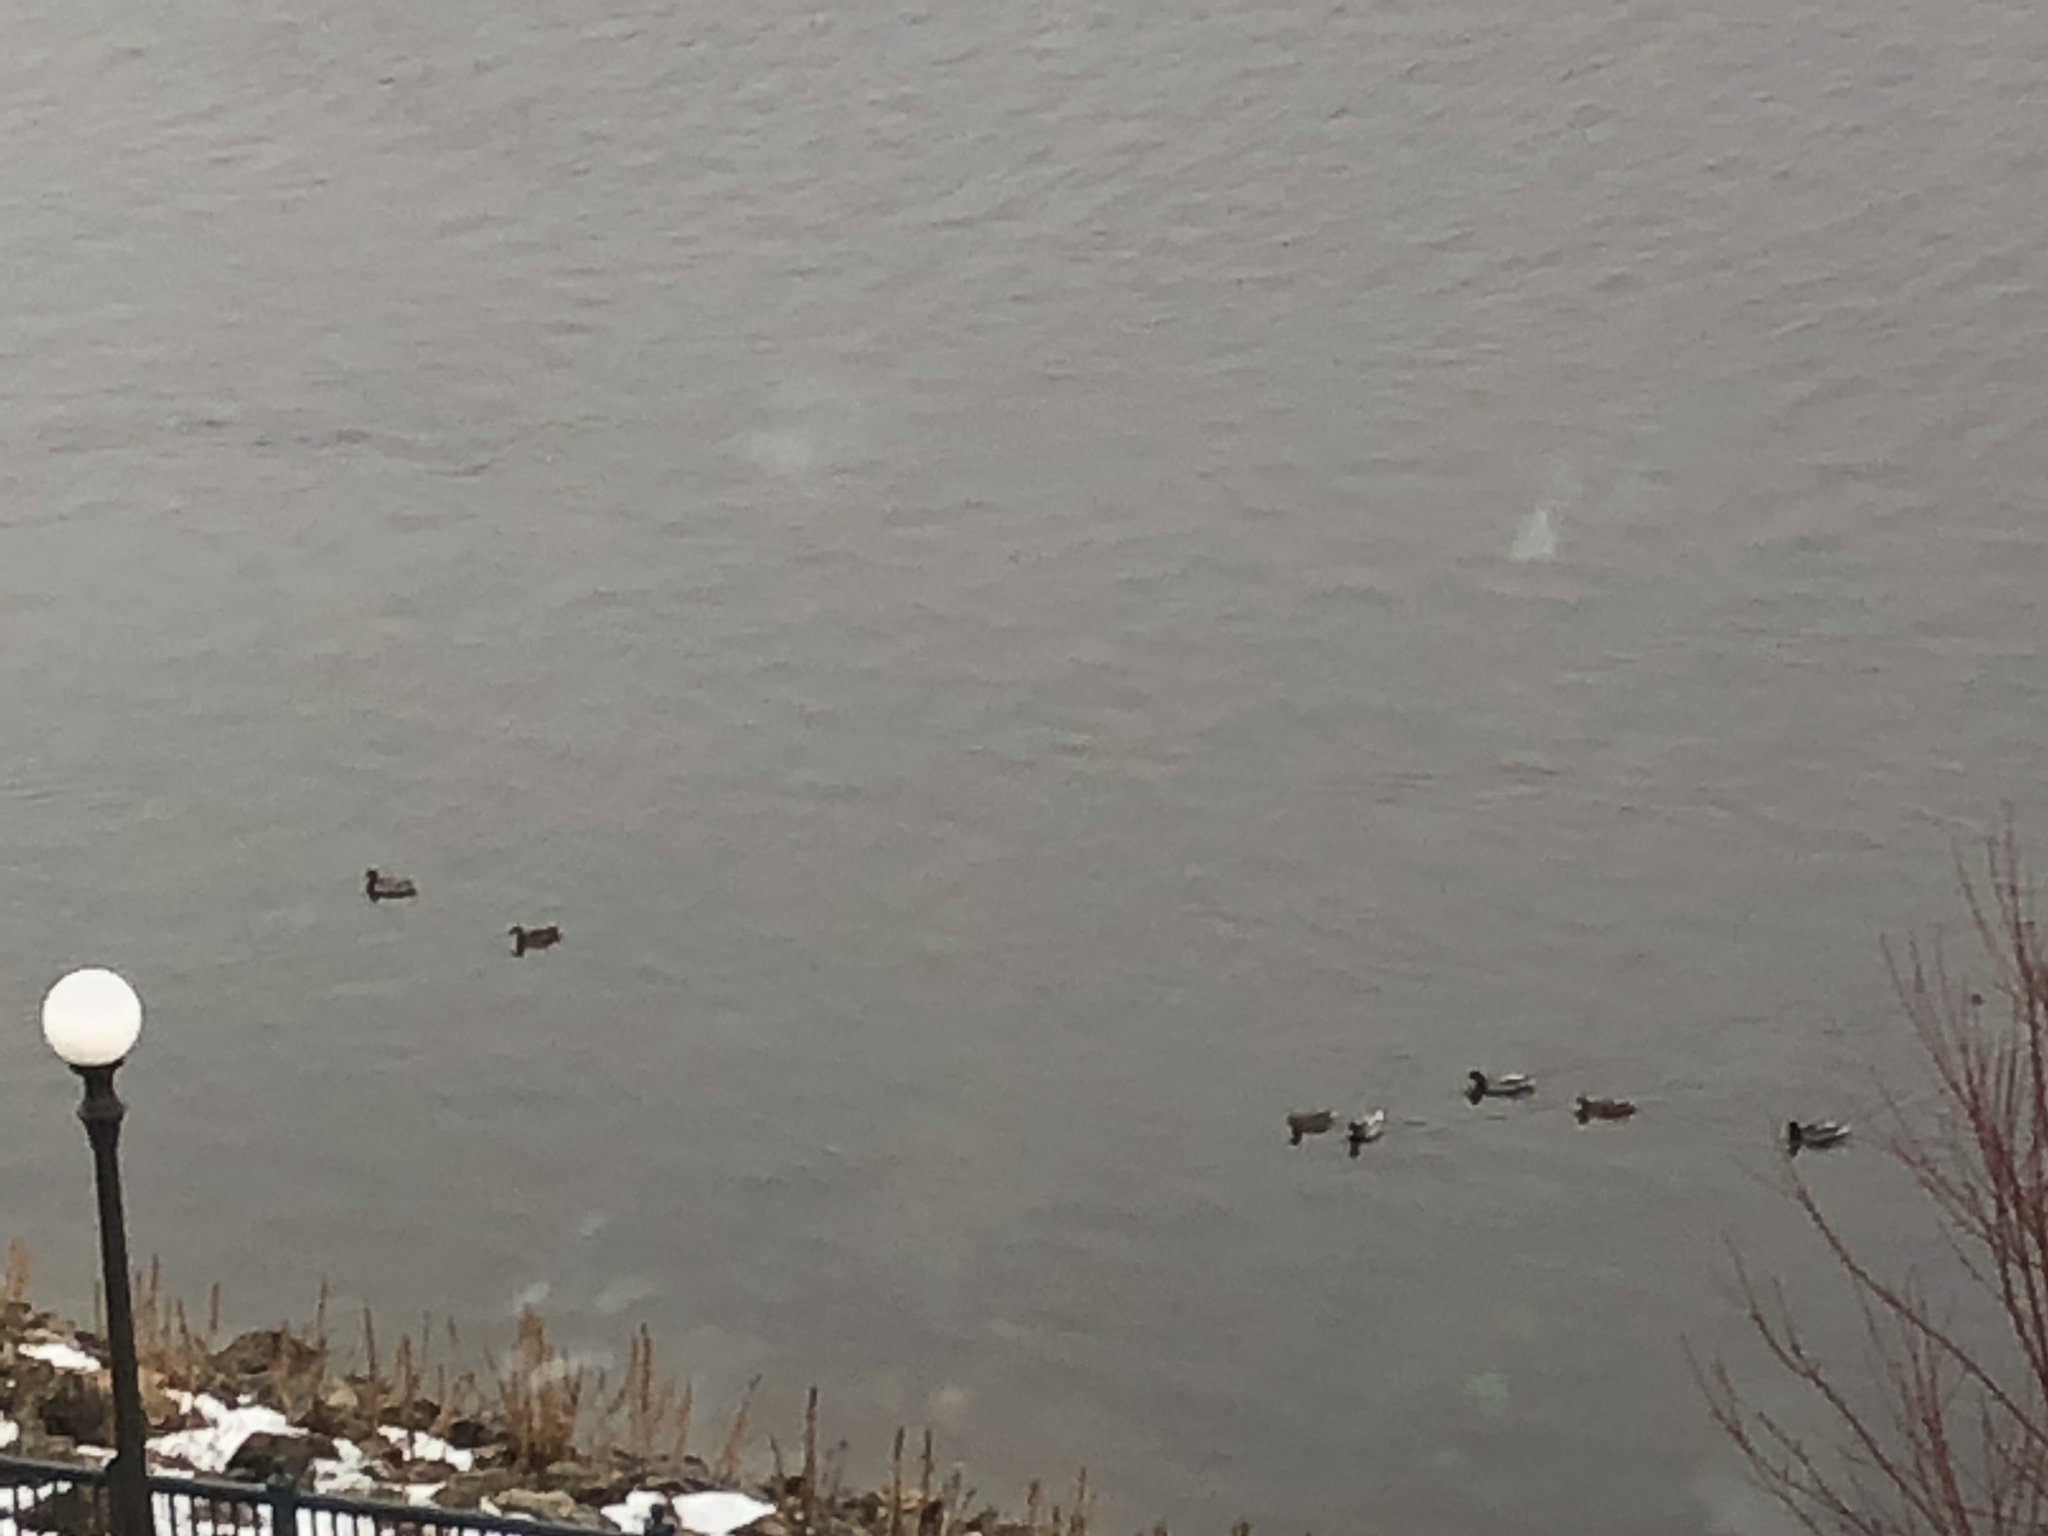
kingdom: Animalia
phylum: Chordata
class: Aves
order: Anseriformes
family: Anatidae
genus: Anas
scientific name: Anas platyrhynchos
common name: Mallard
